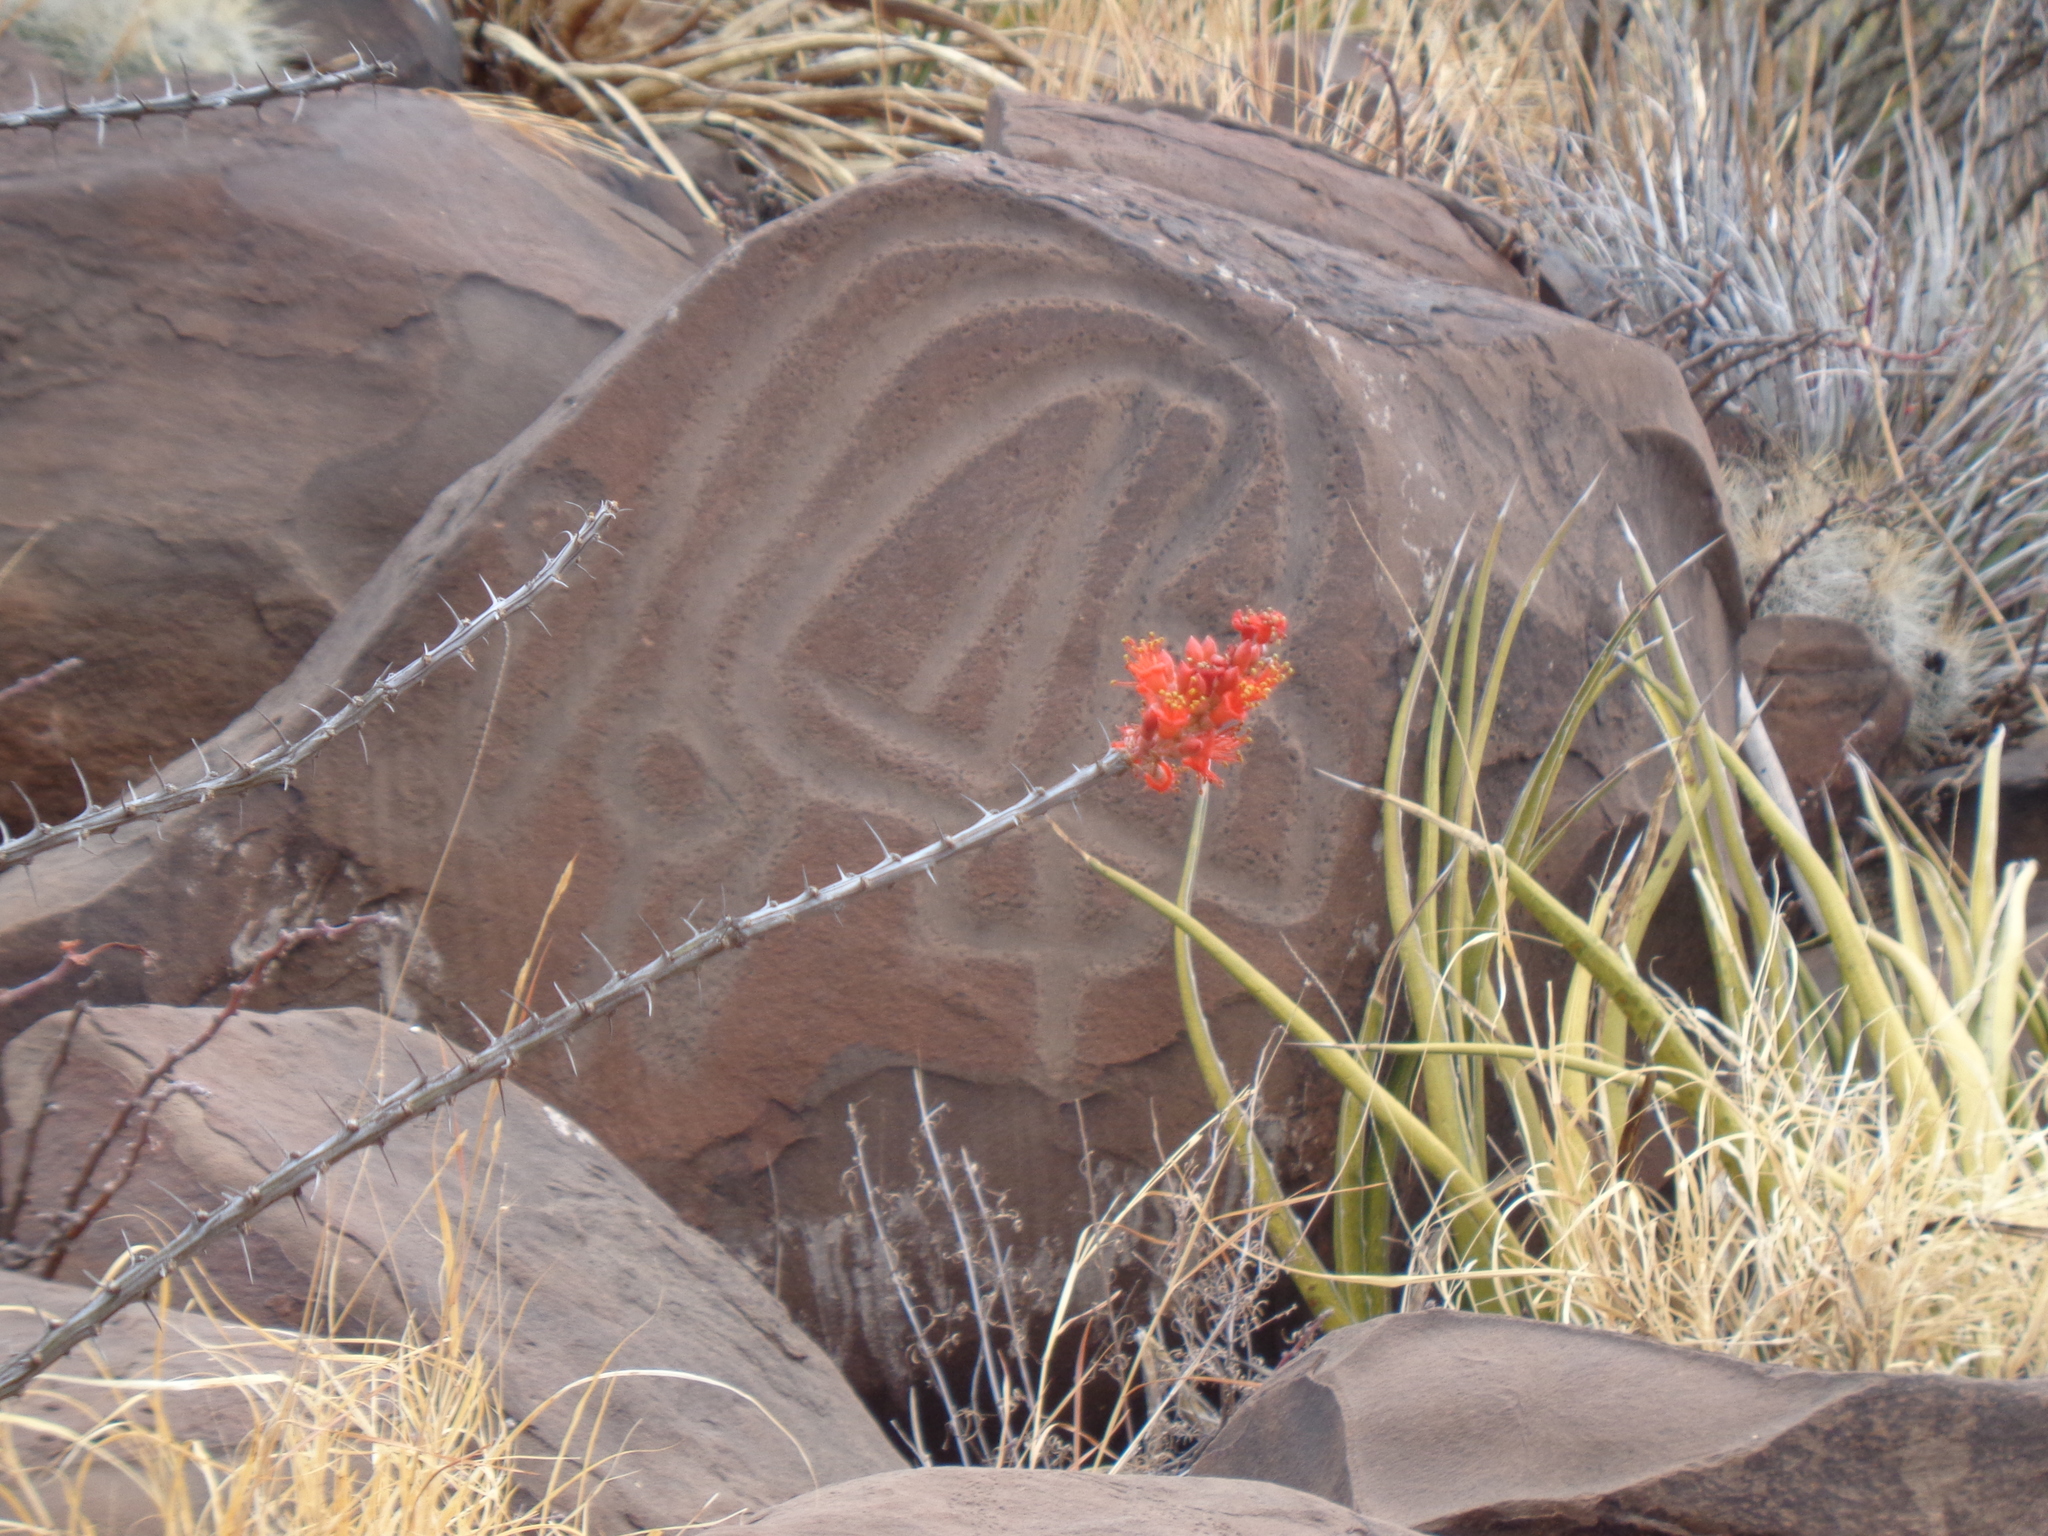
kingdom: Plantae
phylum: Tracheophyta
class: Magnoliopsida
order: Ericales
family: Fouquieriaceae
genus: Fouquieria
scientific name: Fouquieria splendens
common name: Vine-cactus
